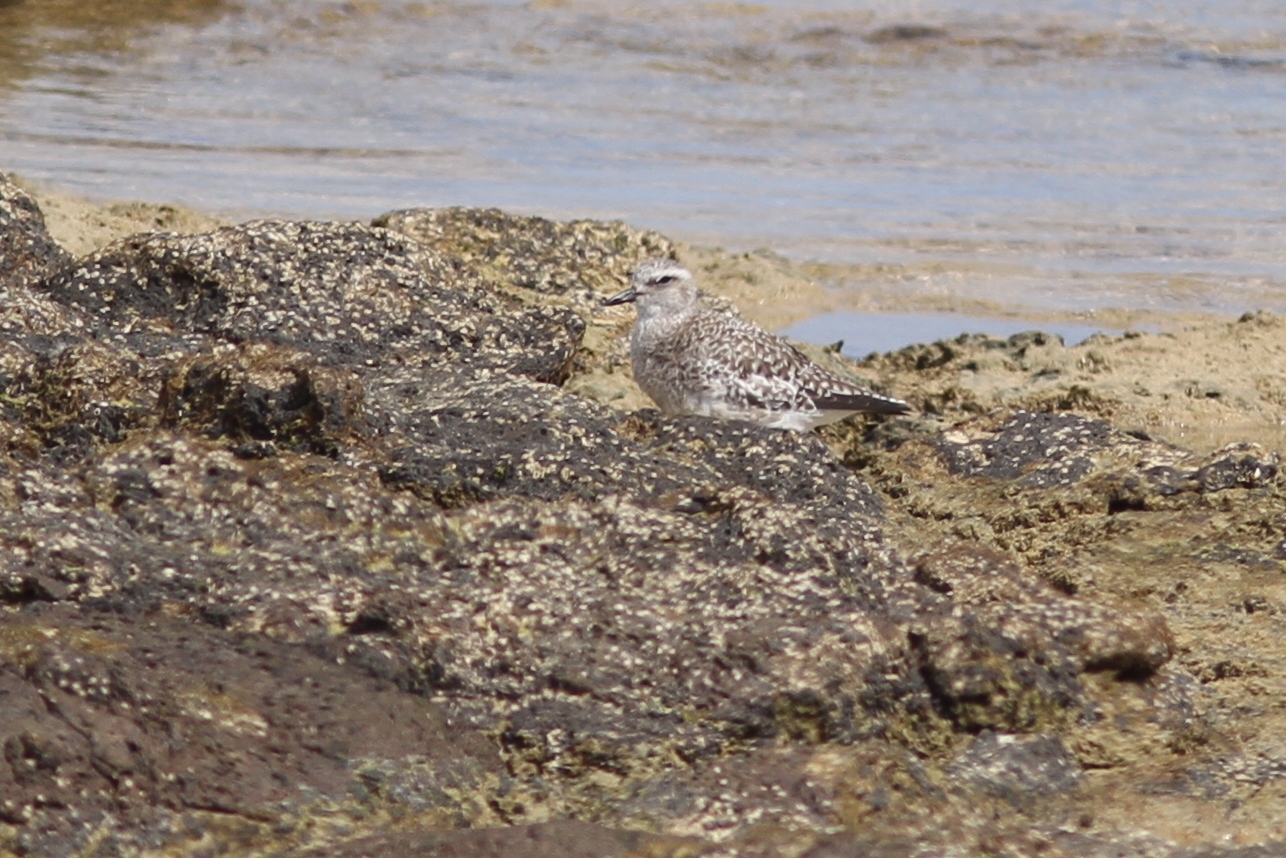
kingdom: Animalia
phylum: Chordata
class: Aves
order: Charadriiformes
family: Charadriidae
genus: Pluvialis
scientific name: Pluvialis squatarola
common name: Grey plover
